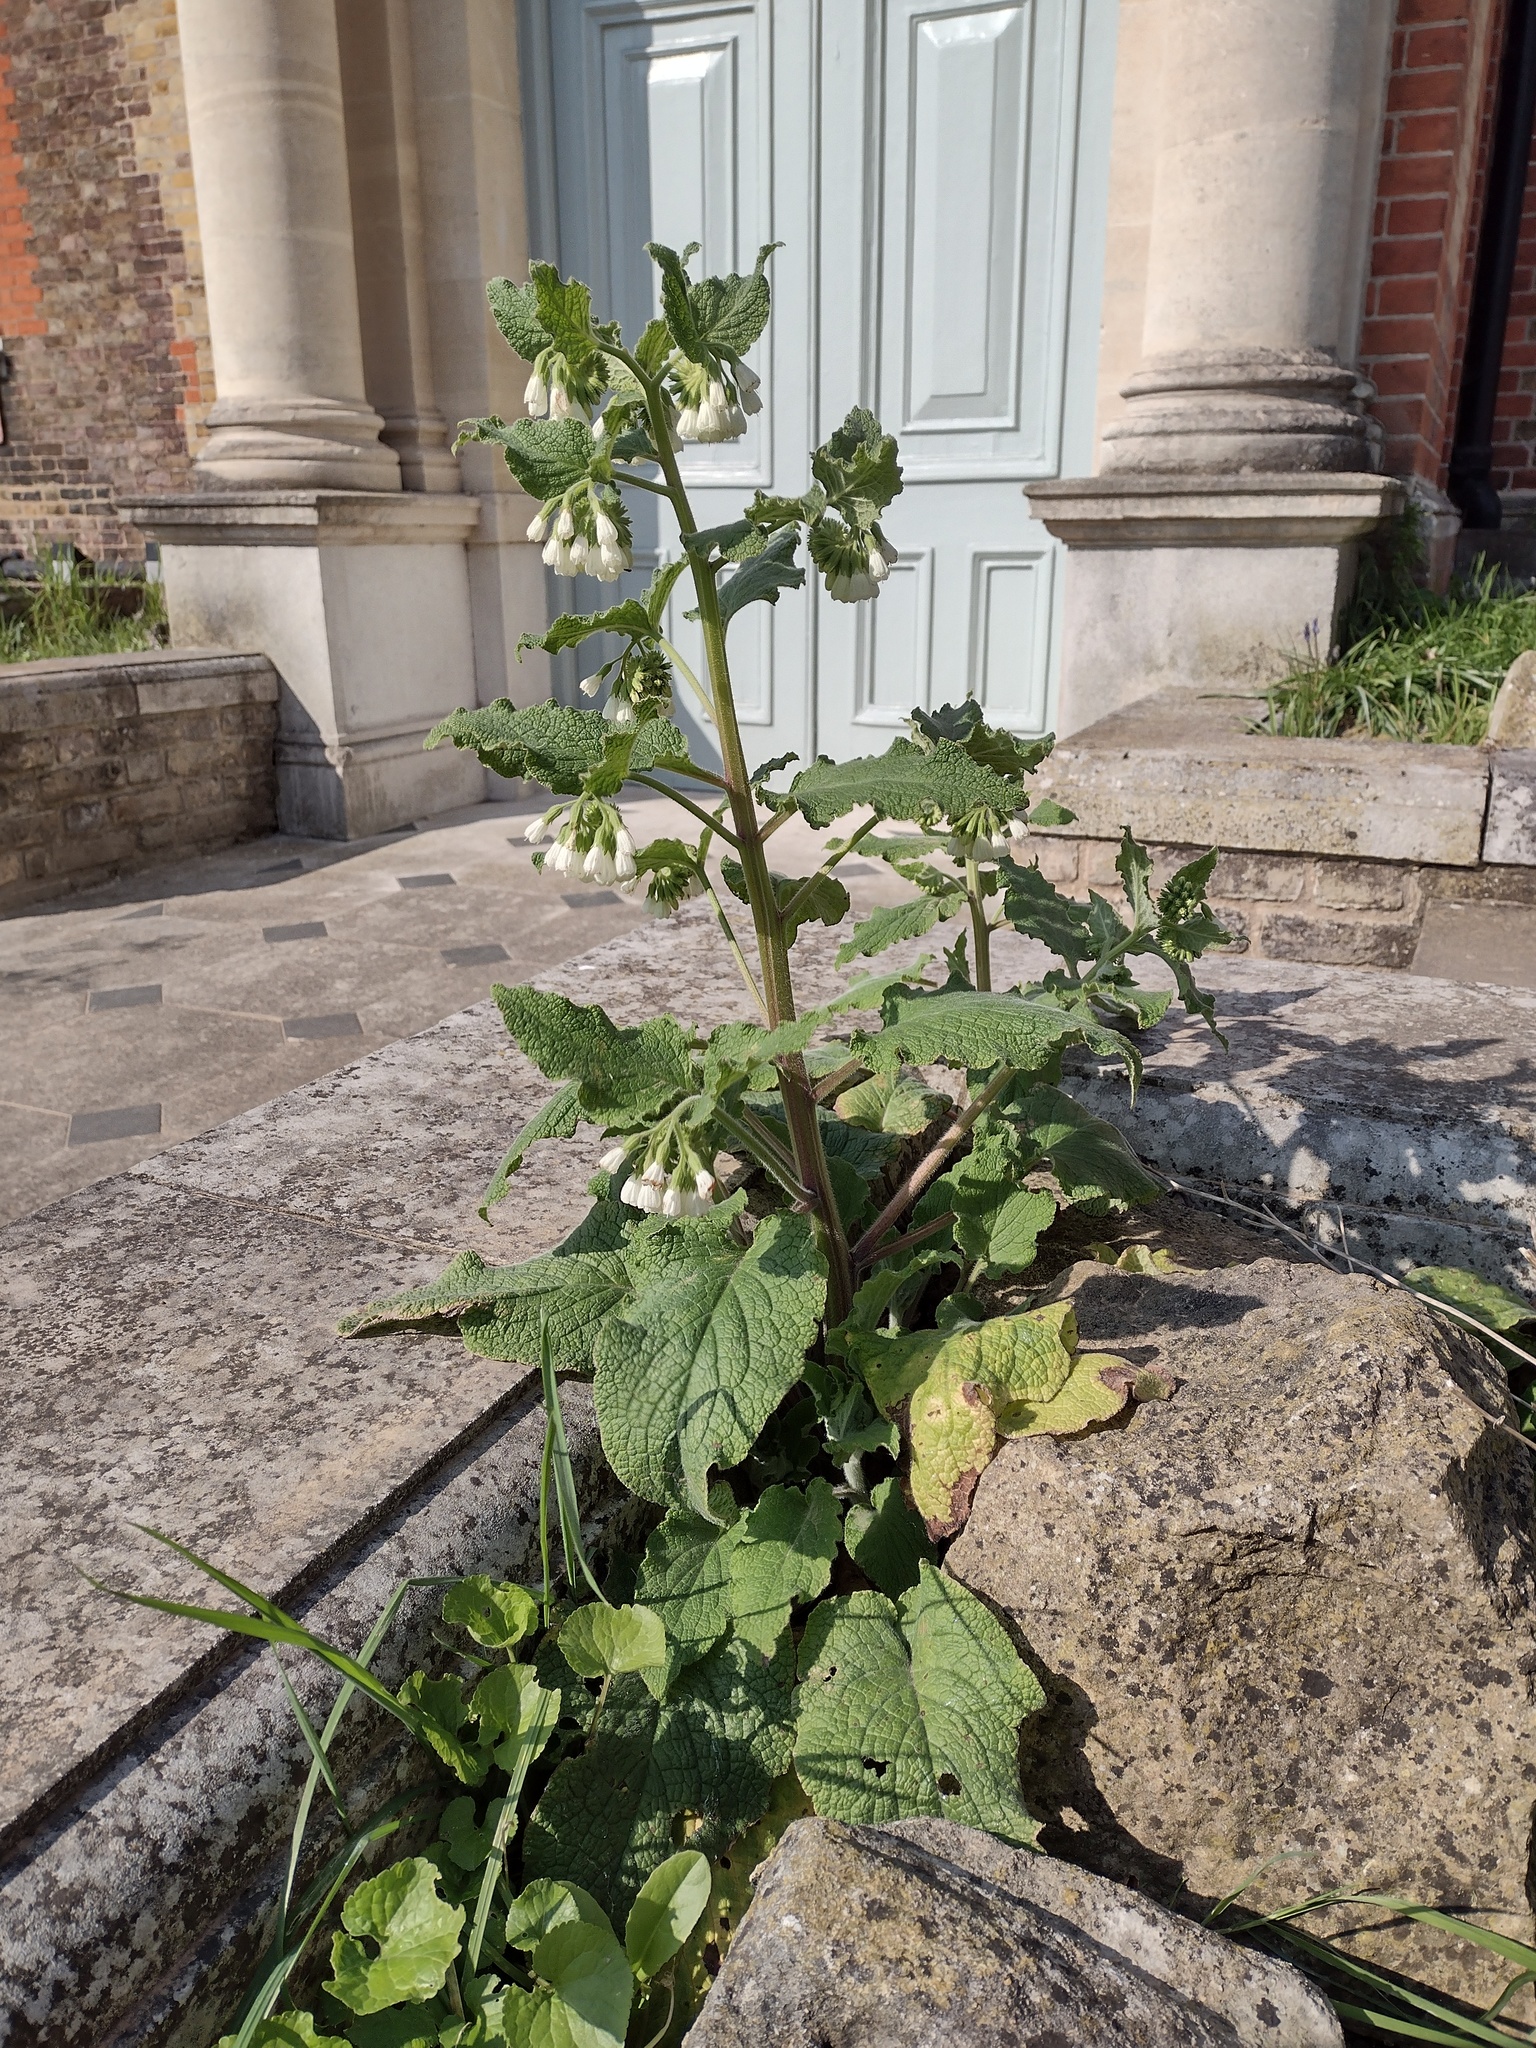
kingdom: Plantae
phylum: Tracheophyta
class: Magnoliopsida
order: Boraginales
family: Boraginaceae
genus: Symphytum
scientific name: Symphytum orientale
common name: White comfrey
